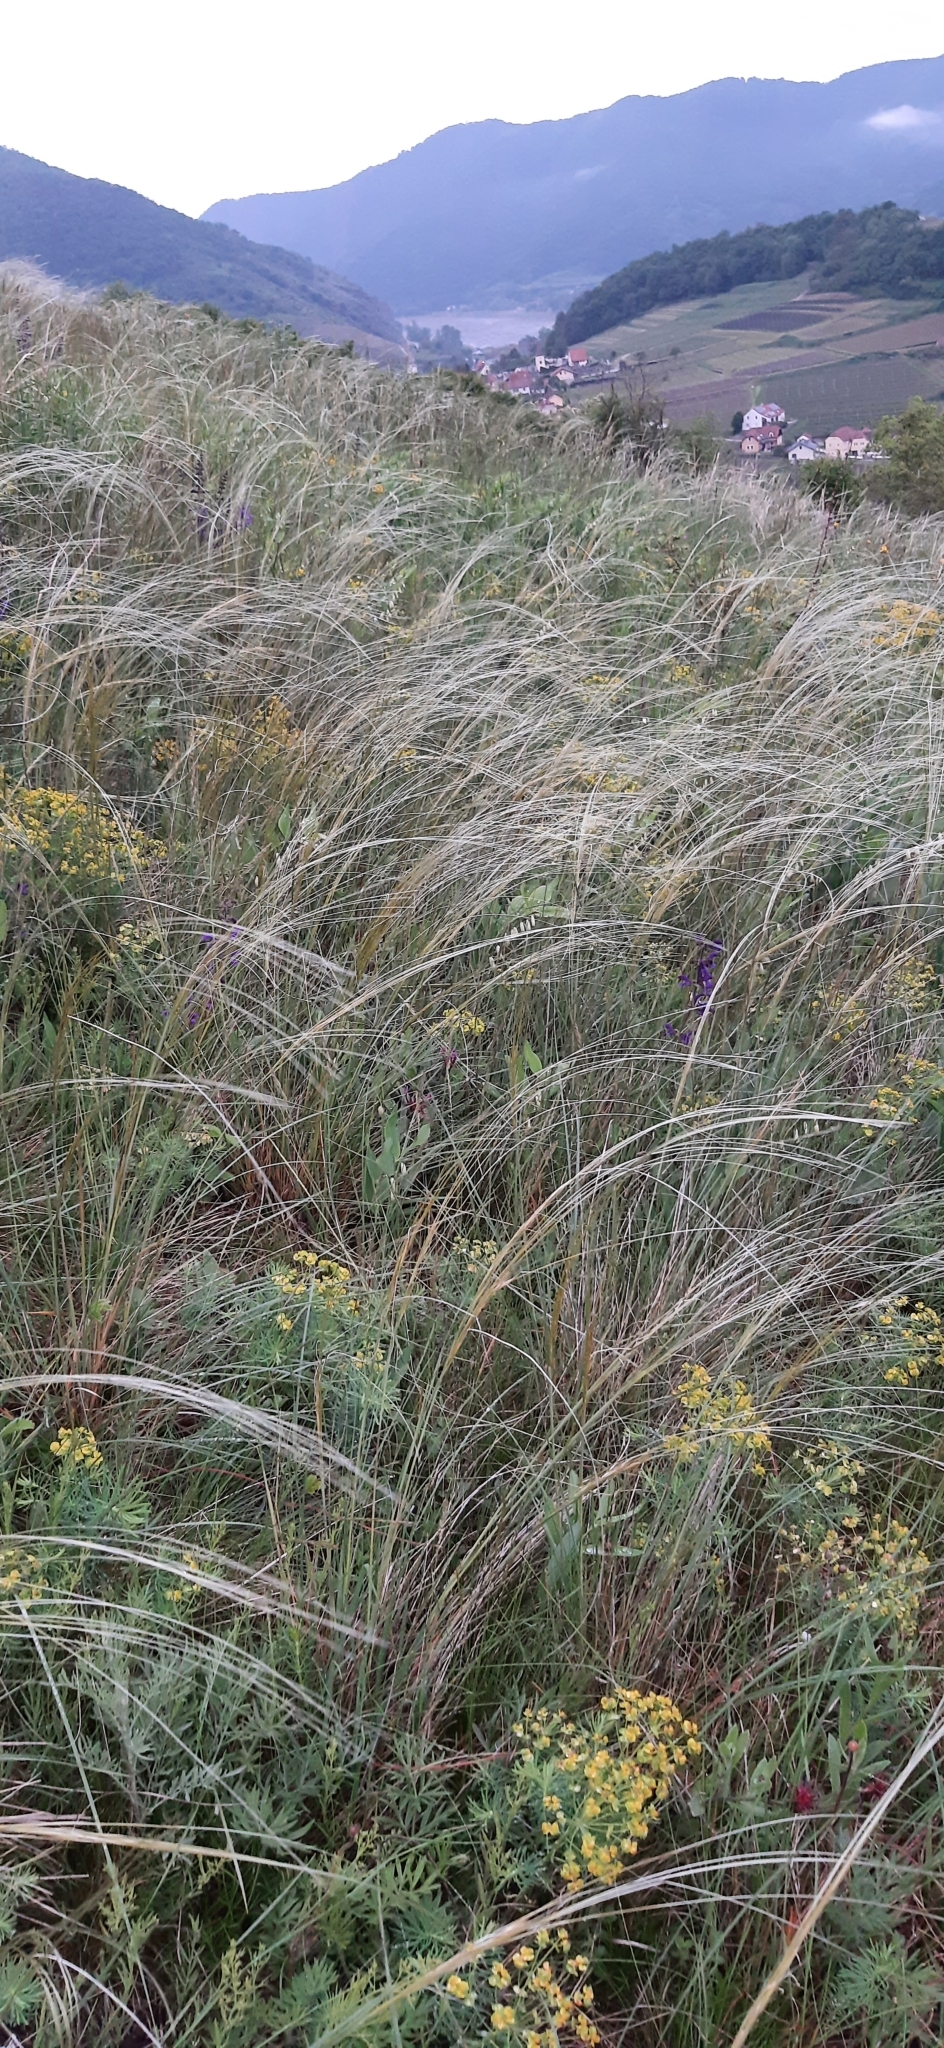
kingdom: Plantae
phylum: Tracheophyta
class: Liliopsida
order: Poales
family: Poaceae
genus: Stipa
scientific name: Stipa pennata
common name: European feather grass
